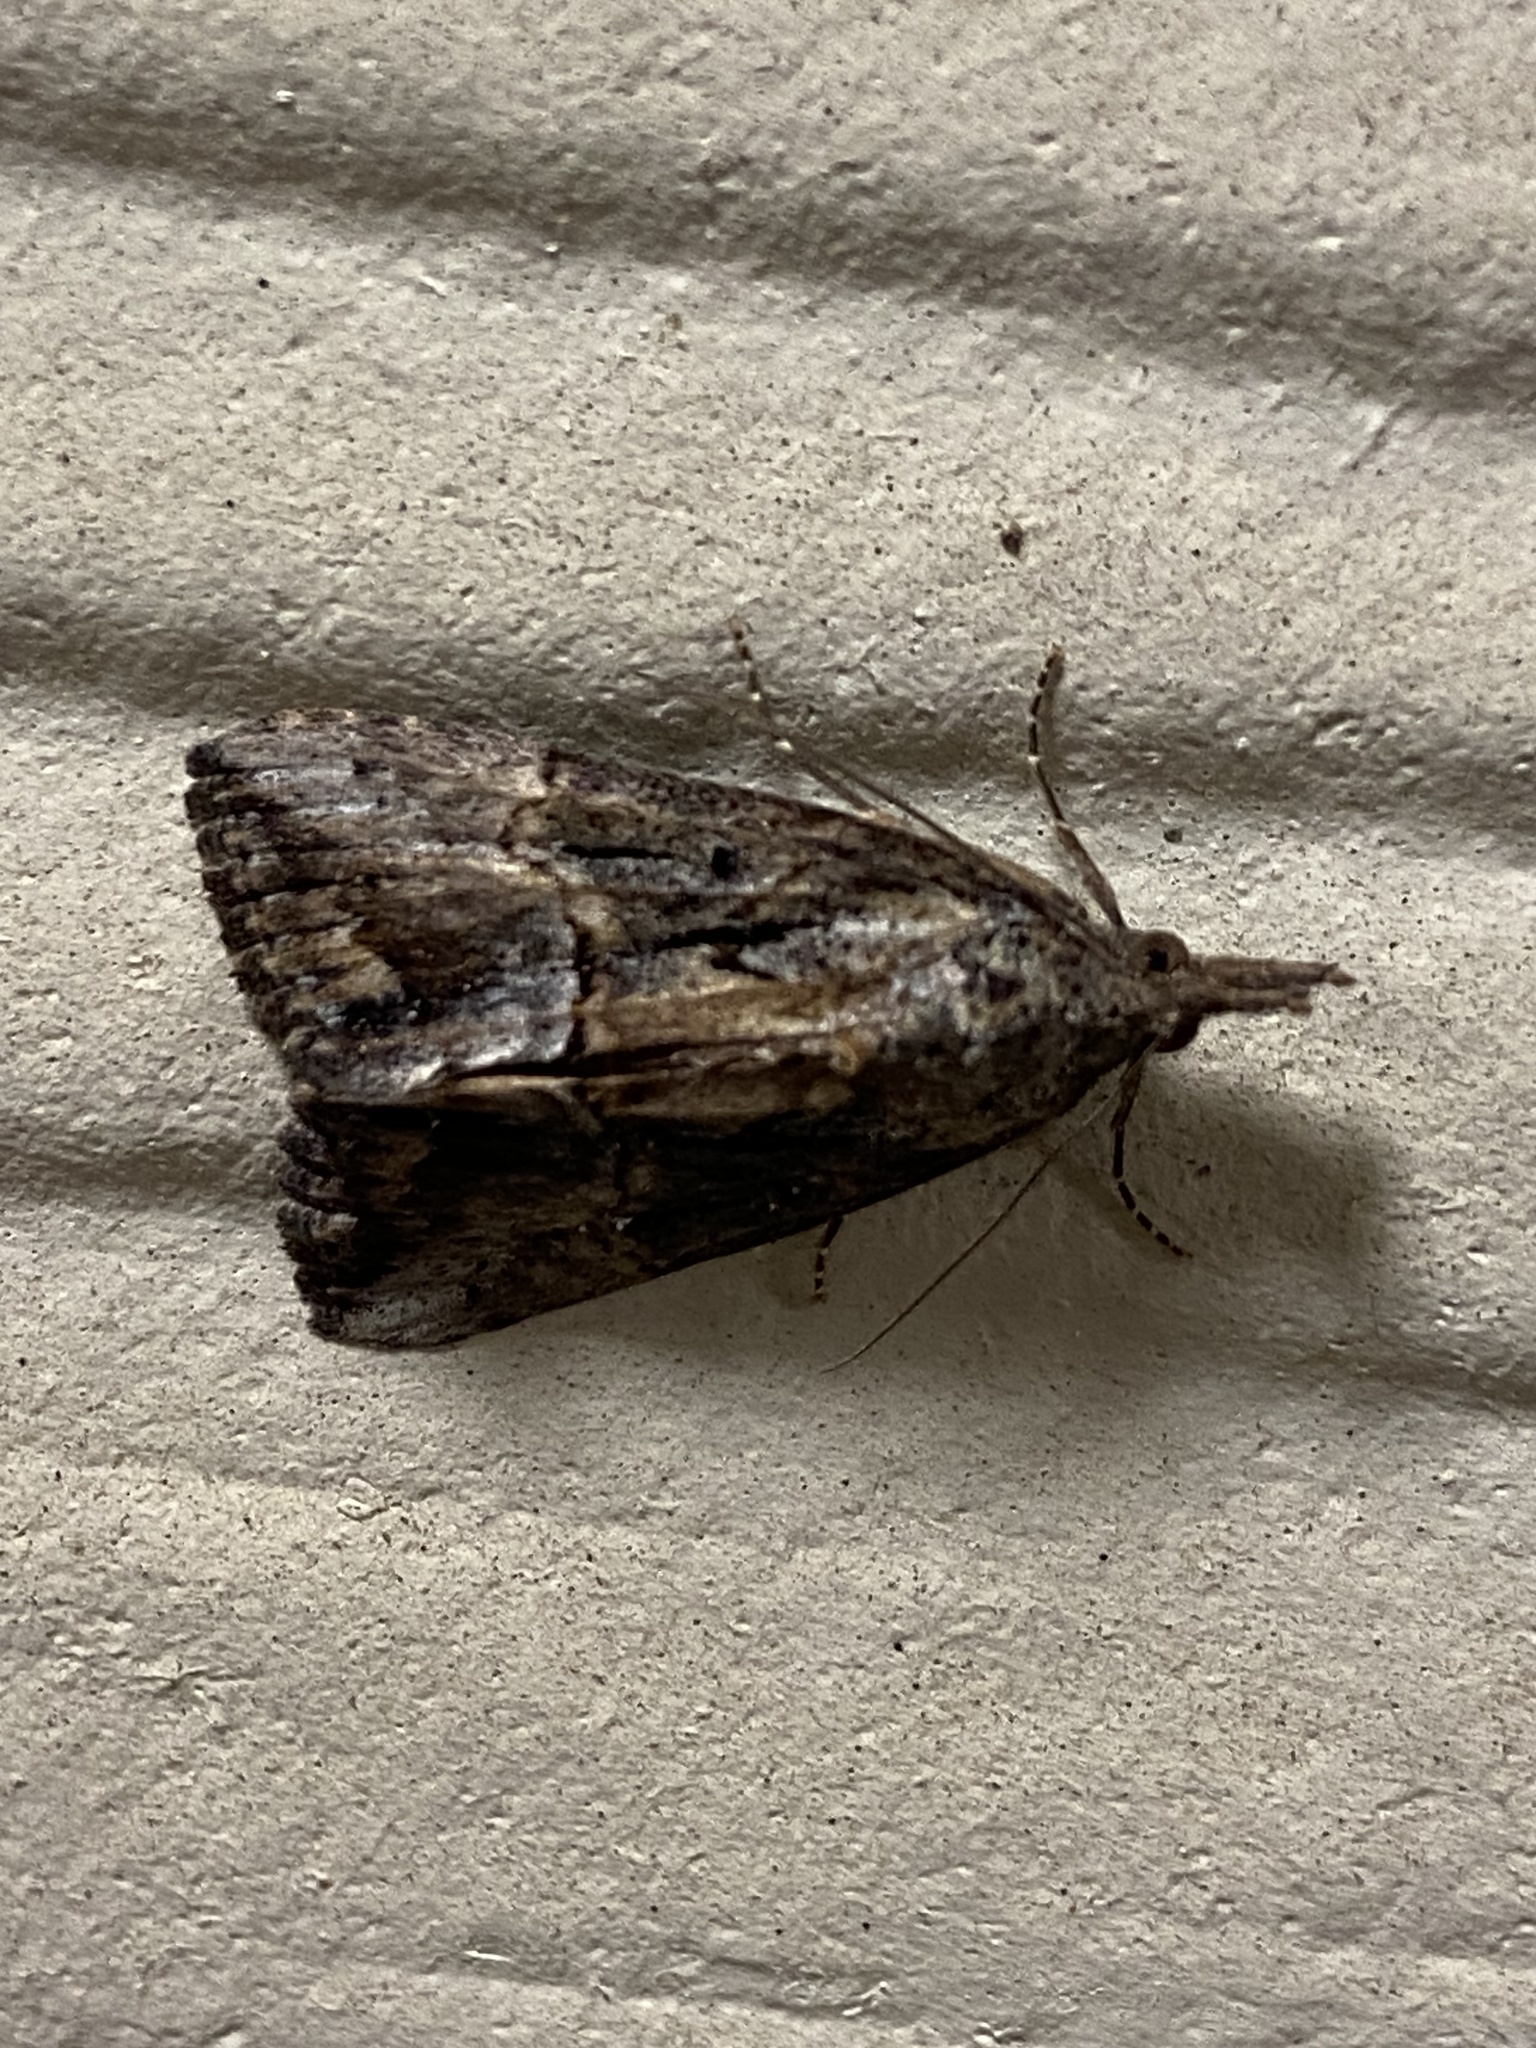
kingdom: Animalia
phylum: Arthropoda
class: Insecta
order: Lepidoptera
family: Erebidae
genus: Hypena
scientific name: Hypena scabra
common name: Green cloverworm
